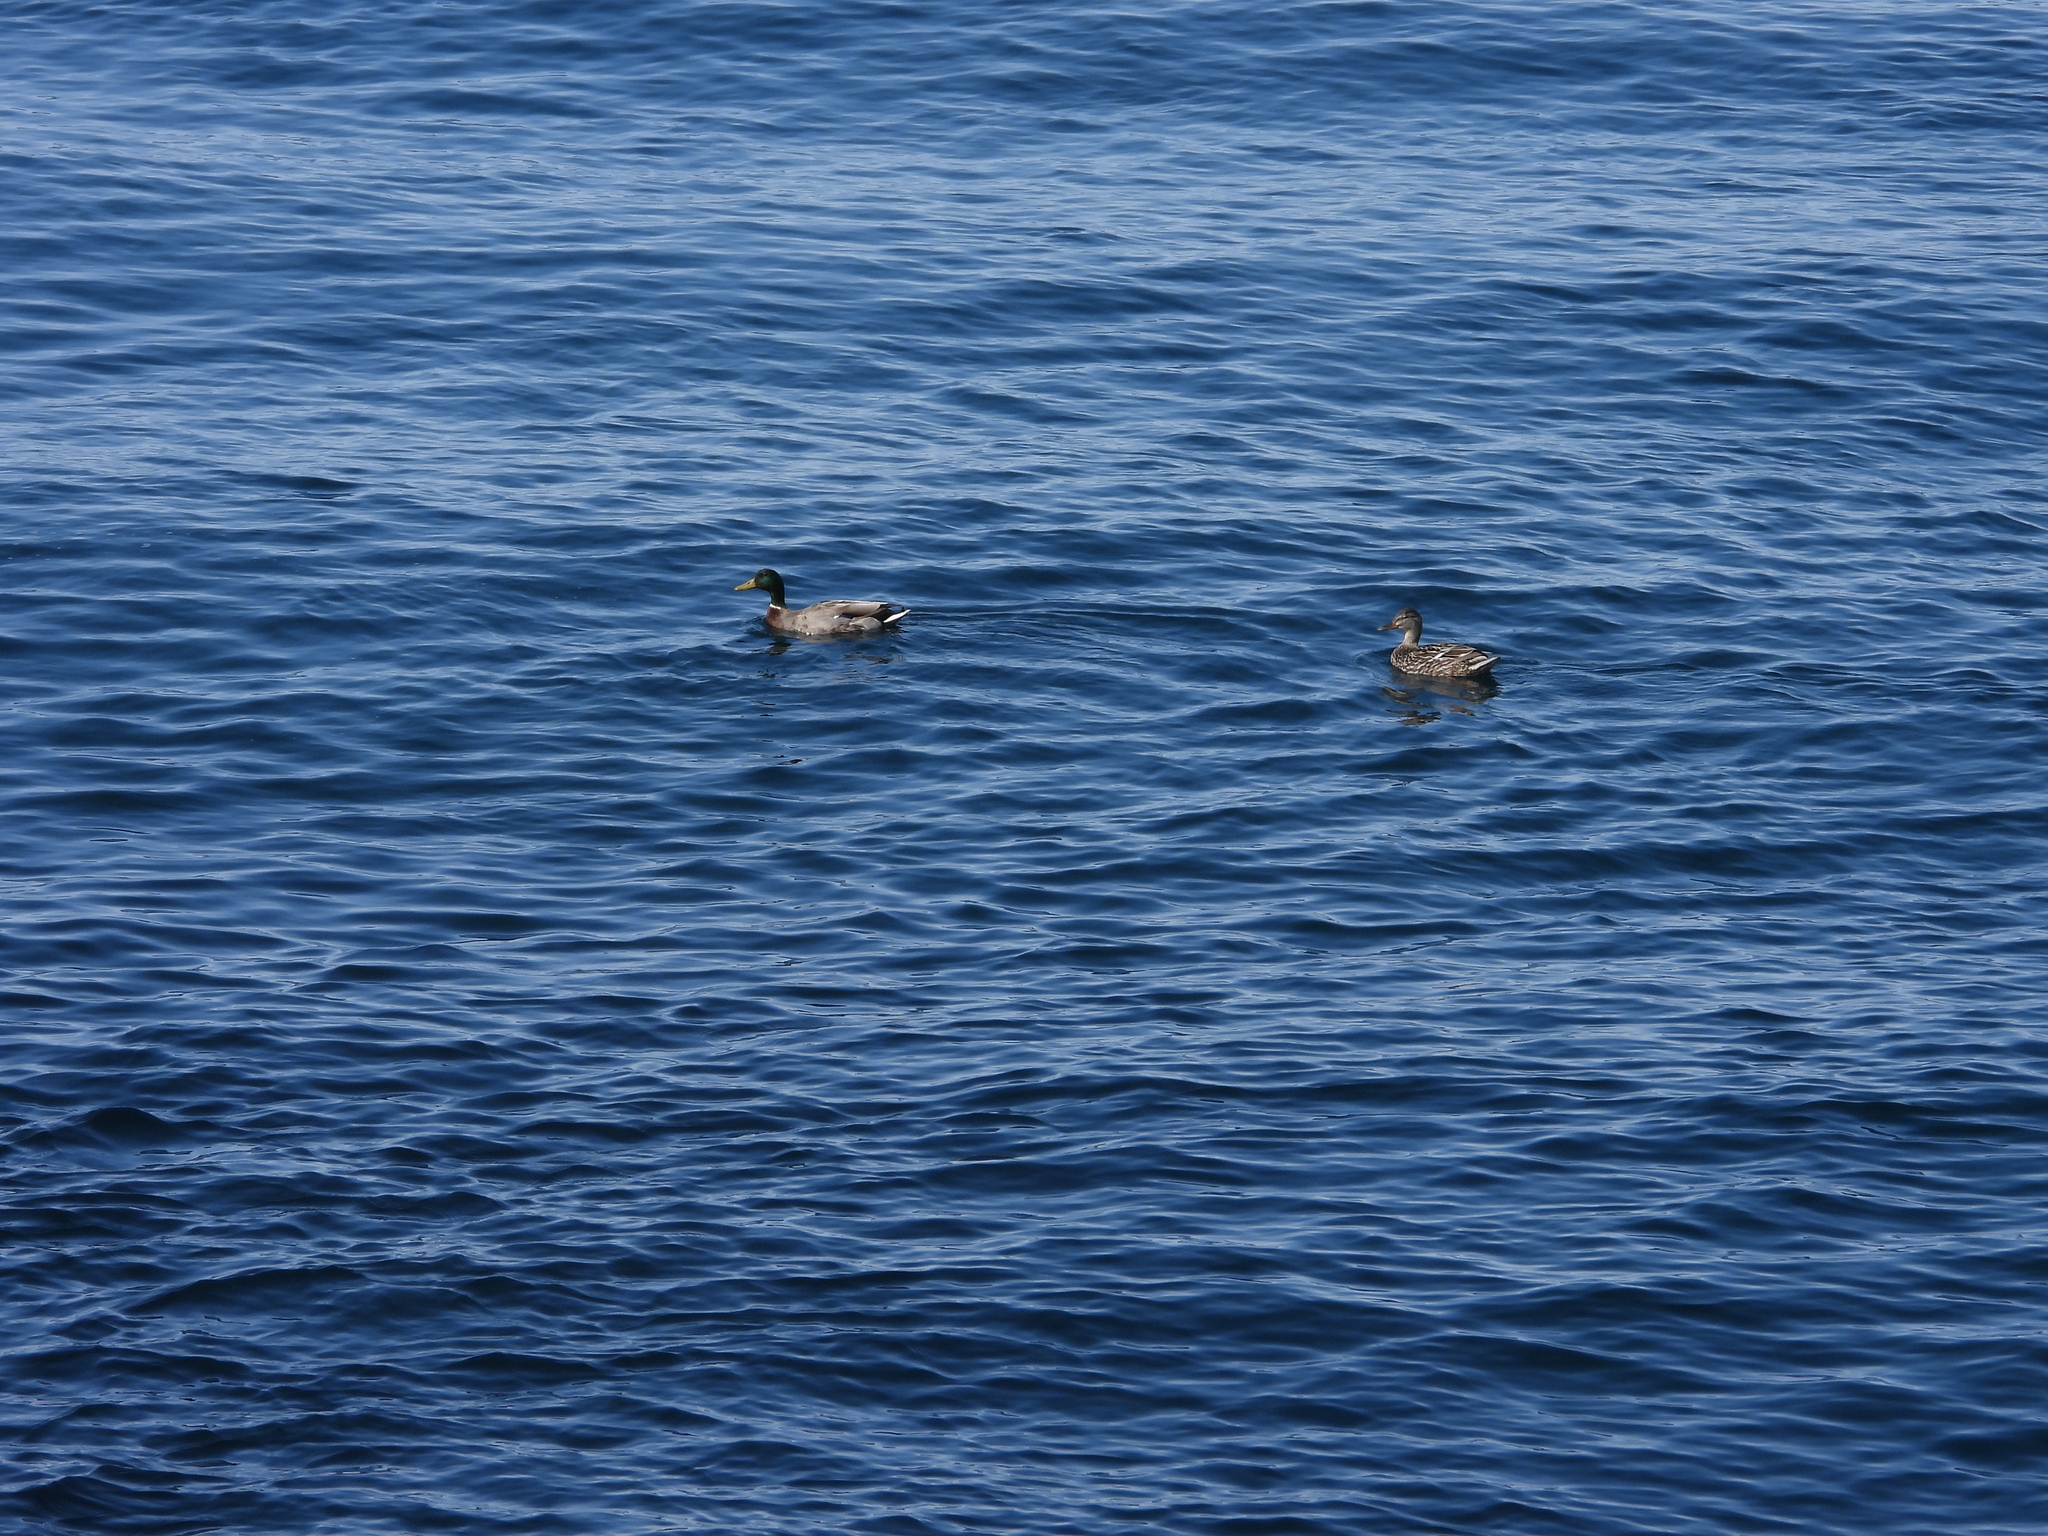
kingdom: Animalia
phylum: Chordata
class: Aves
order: Anseriformes
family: Anatidae
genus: Anas
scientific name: Anas platyrhynchos
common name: Mallard
